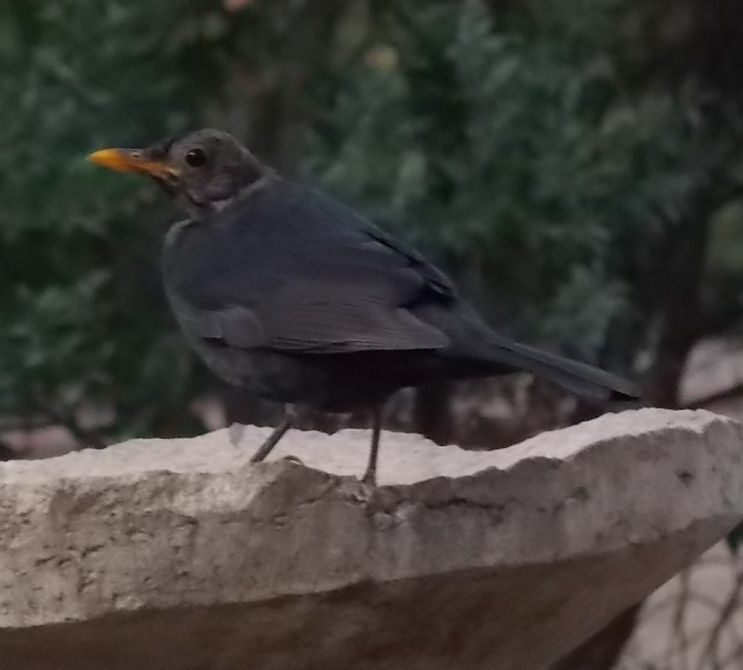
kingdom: Animalia
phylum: Chordata
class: Aves
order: Passeriformes
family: Turdidae
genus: Turdus
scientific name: Turdus merula
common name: Common blackbird
